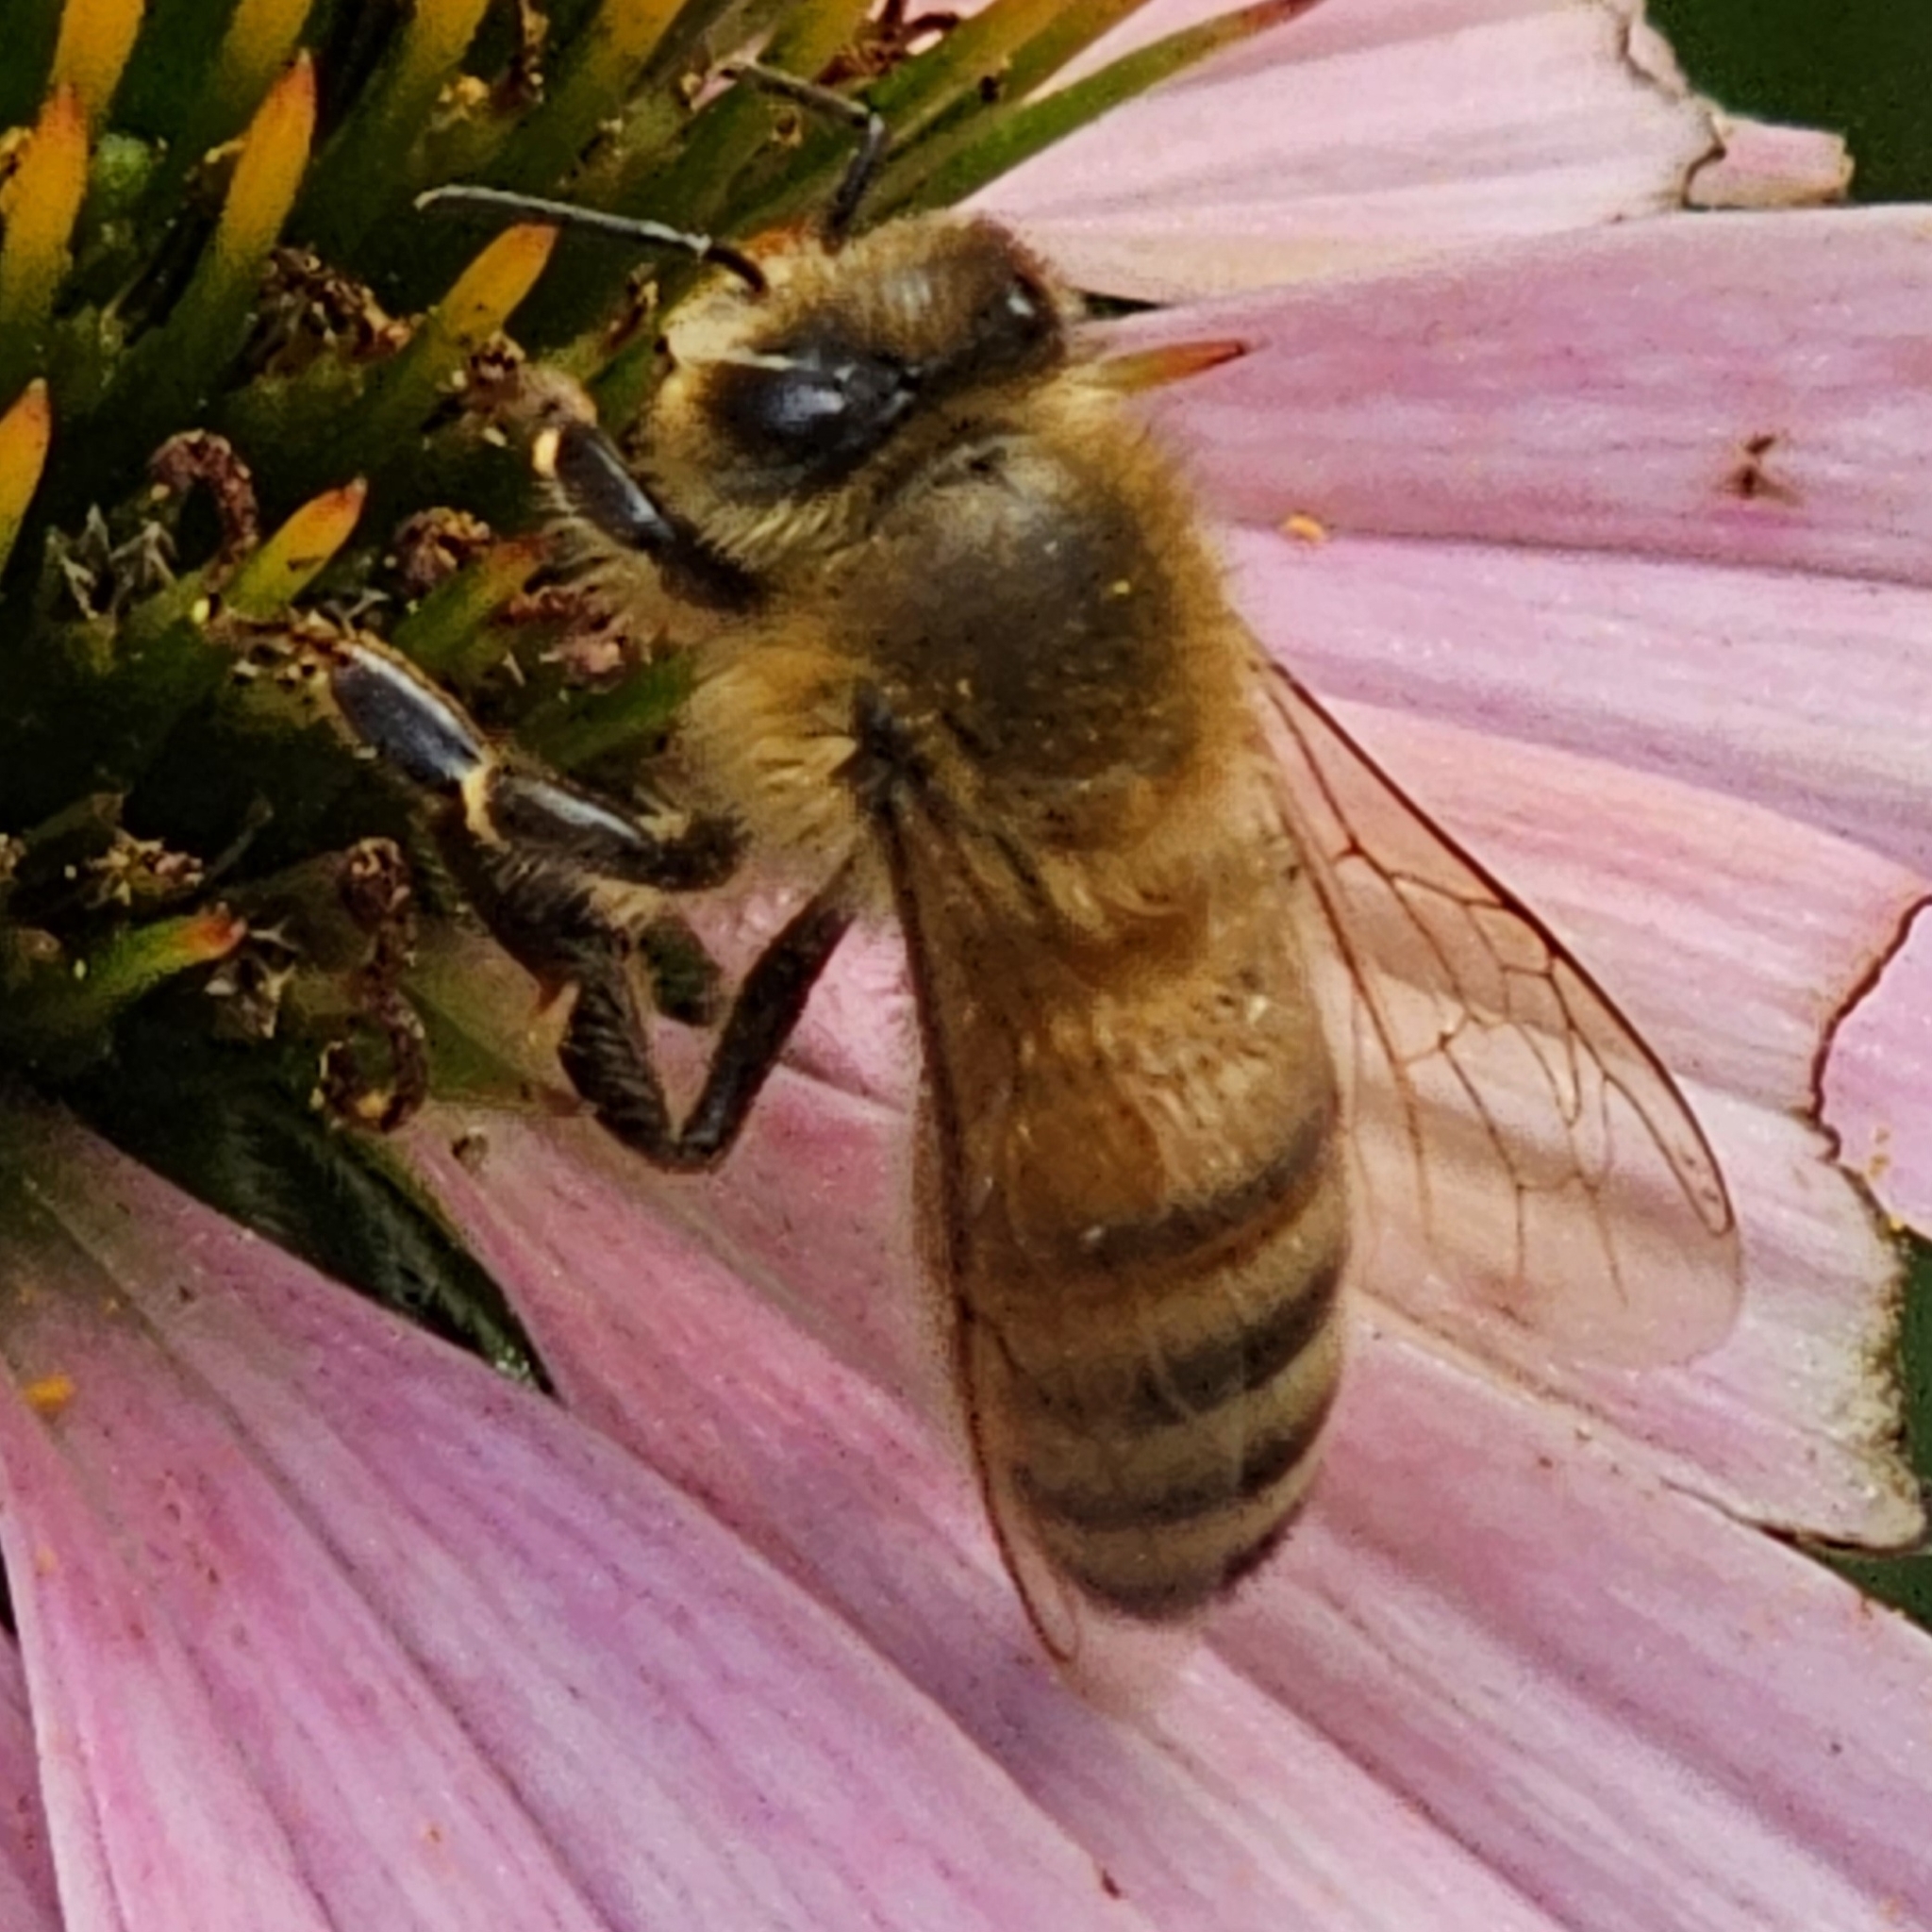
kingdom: Animalia
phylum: Arthropoda
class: Insecta
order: Hymenoptera
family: Apidae
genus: Apis
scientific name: Apis mellifera
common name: Honey bee
